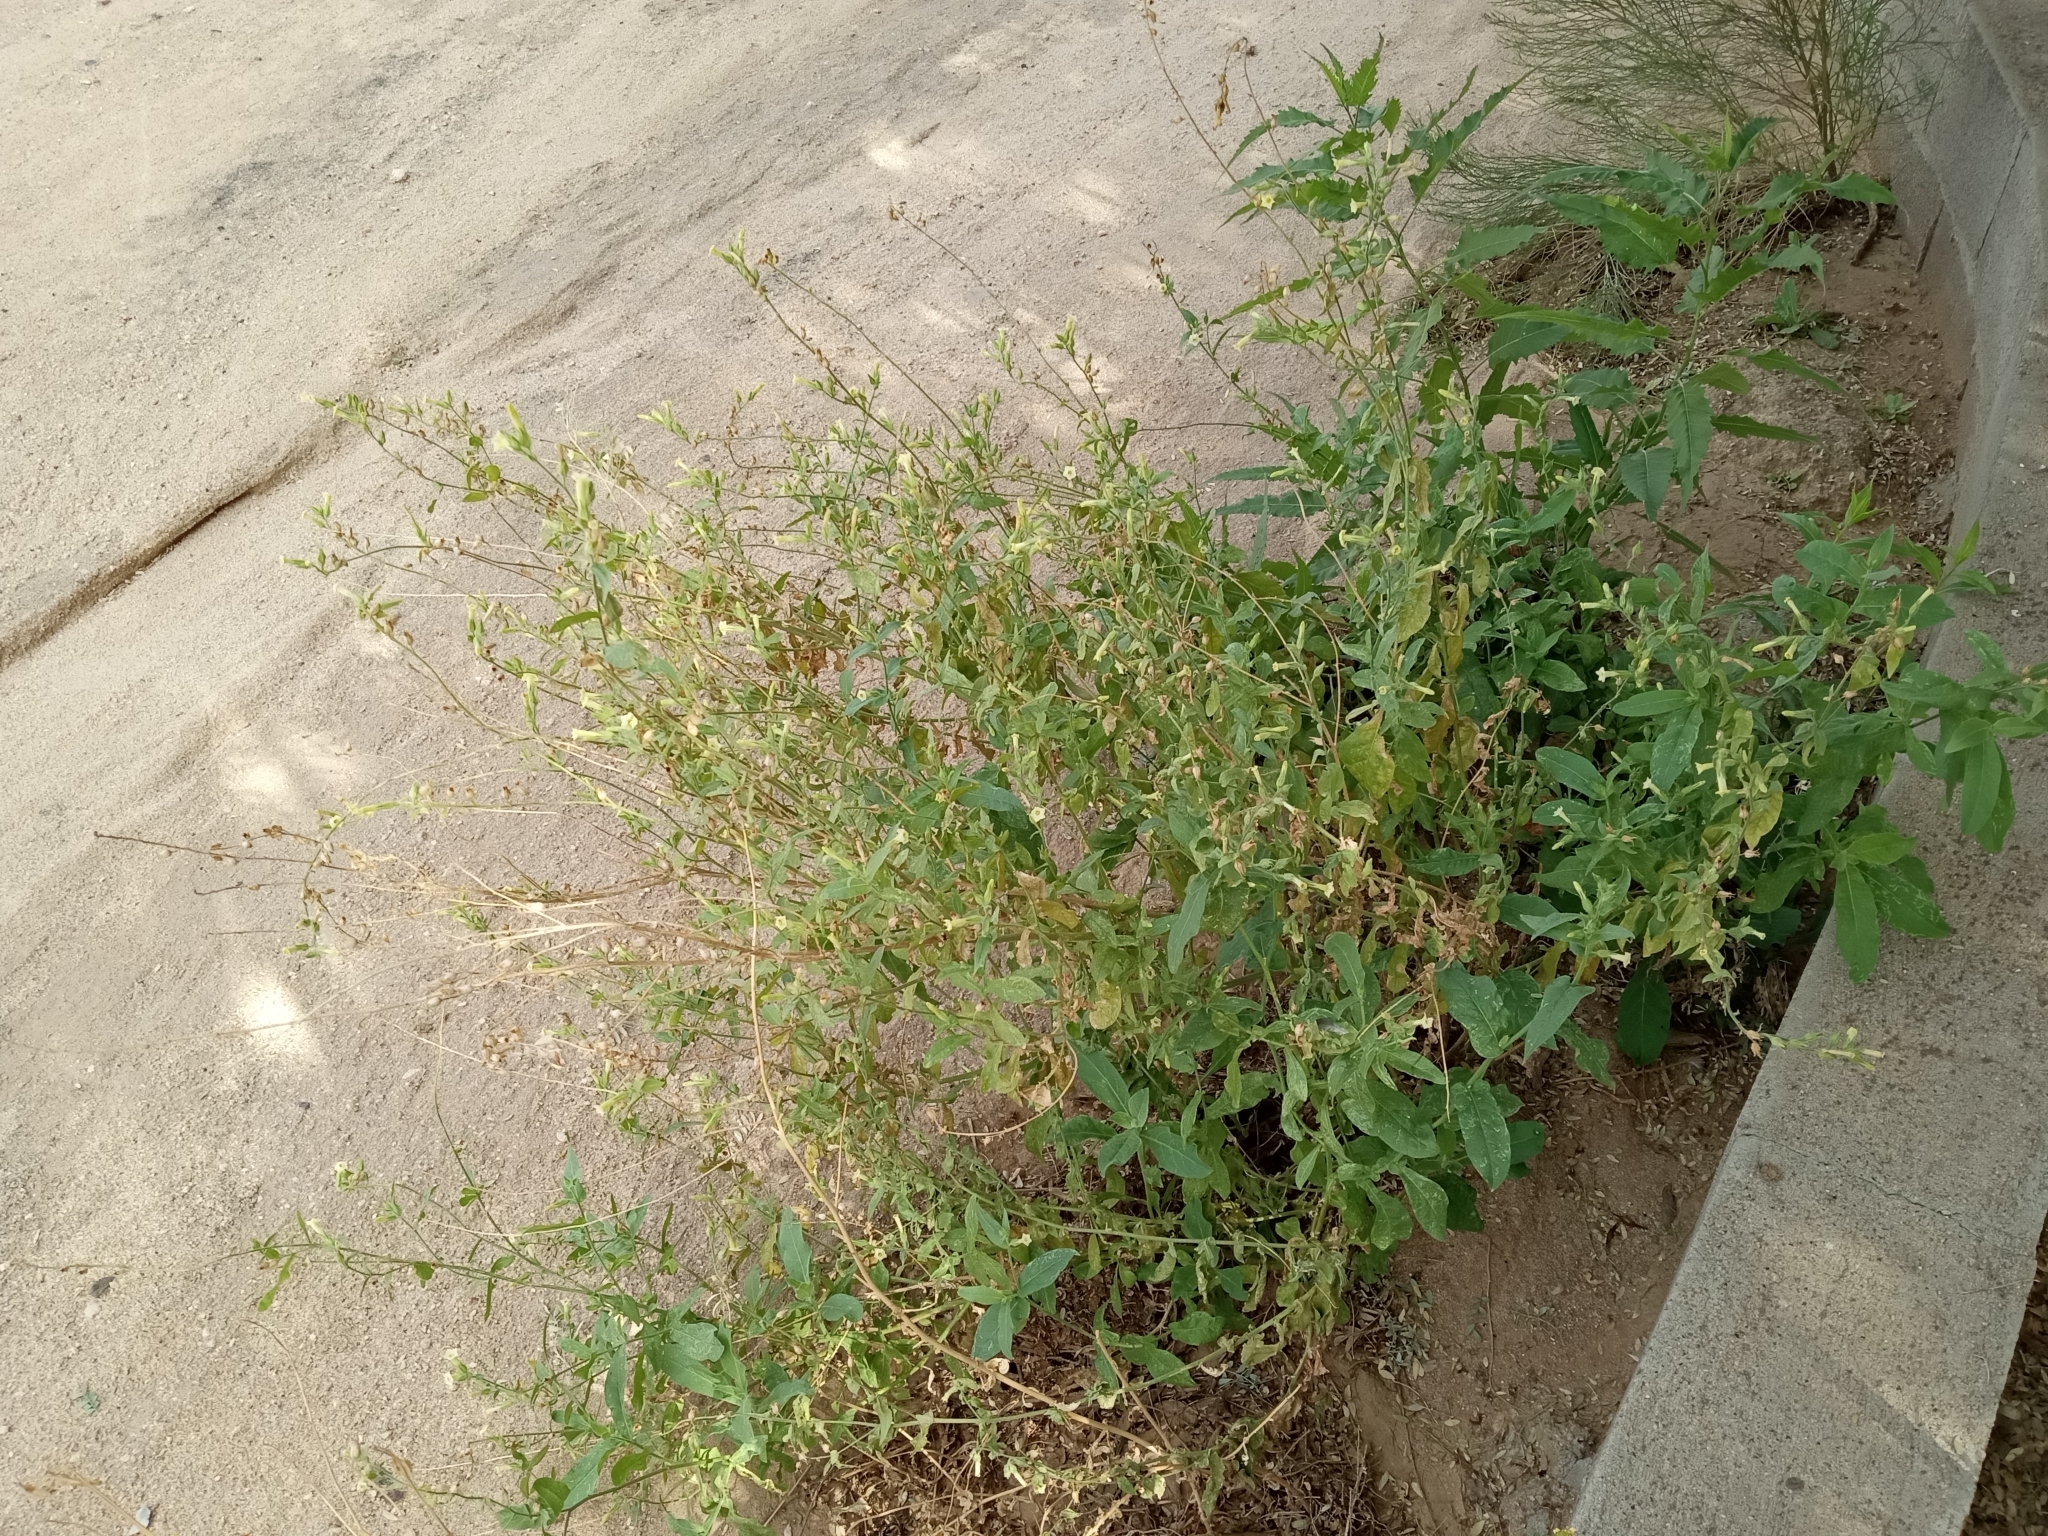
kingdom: Plantae
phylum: Tracheophyta
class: Magnoliopsida
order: Solanales
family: Solanaceae
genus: Nicotiana
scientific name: Nicotiana obtusifolia
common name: Desert tobacco
